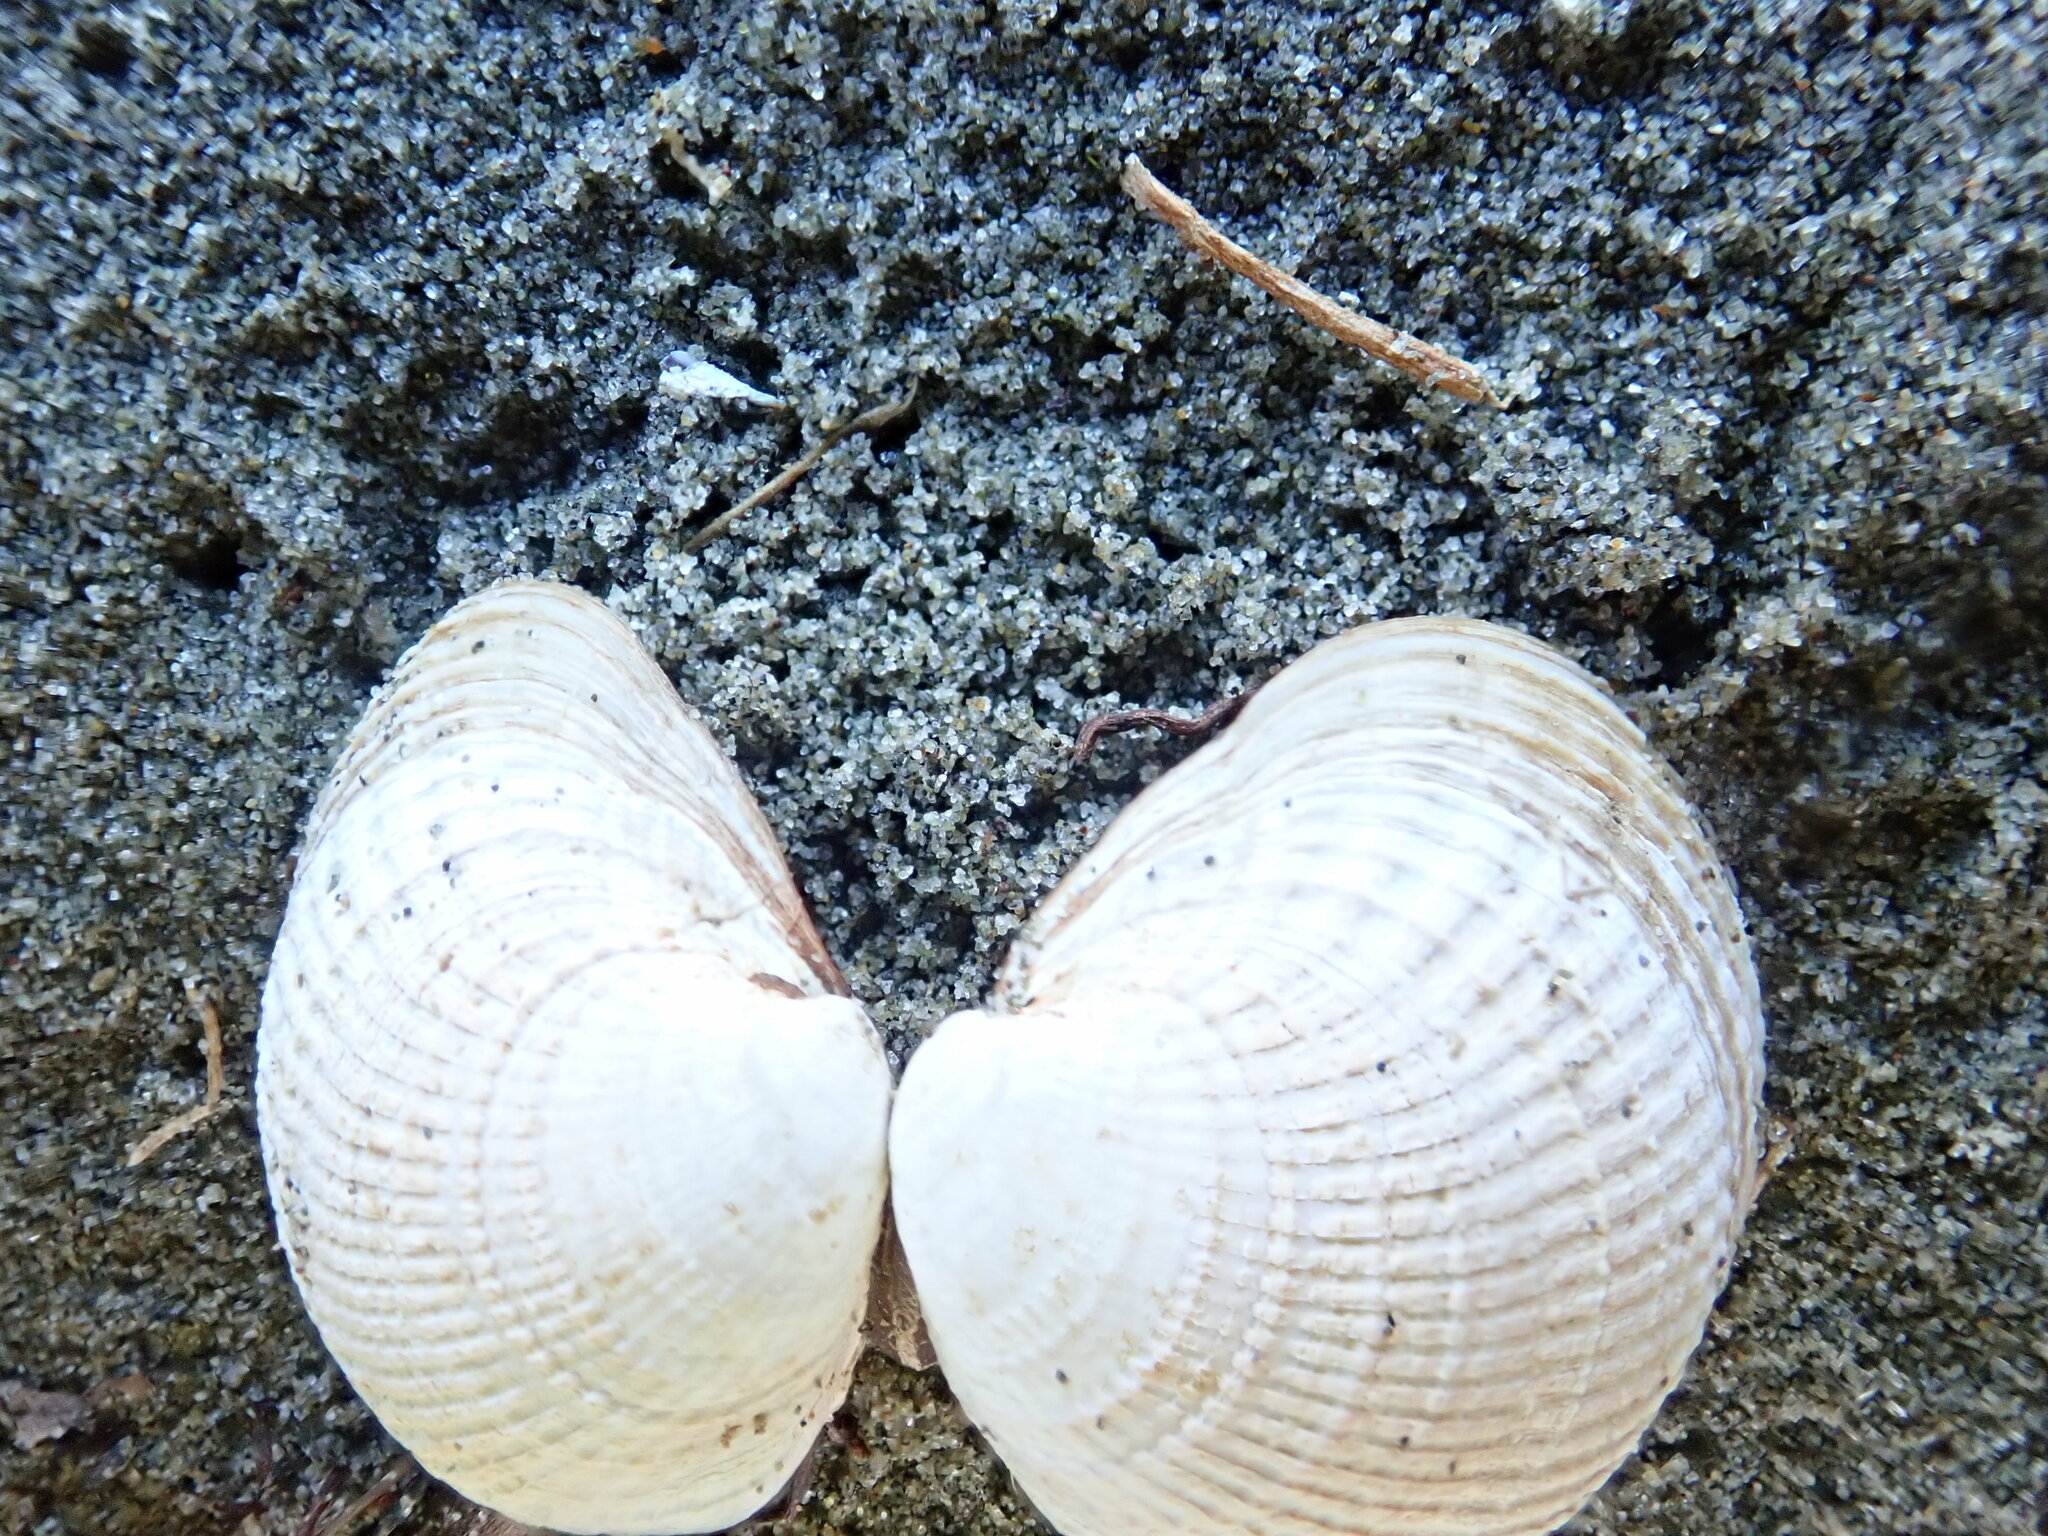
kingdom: Animalia
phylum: Mollusca
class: Bivalvia
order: Venerida
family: Veneridae
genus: Austrovenus
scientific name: Austrovenus stutchburyi
